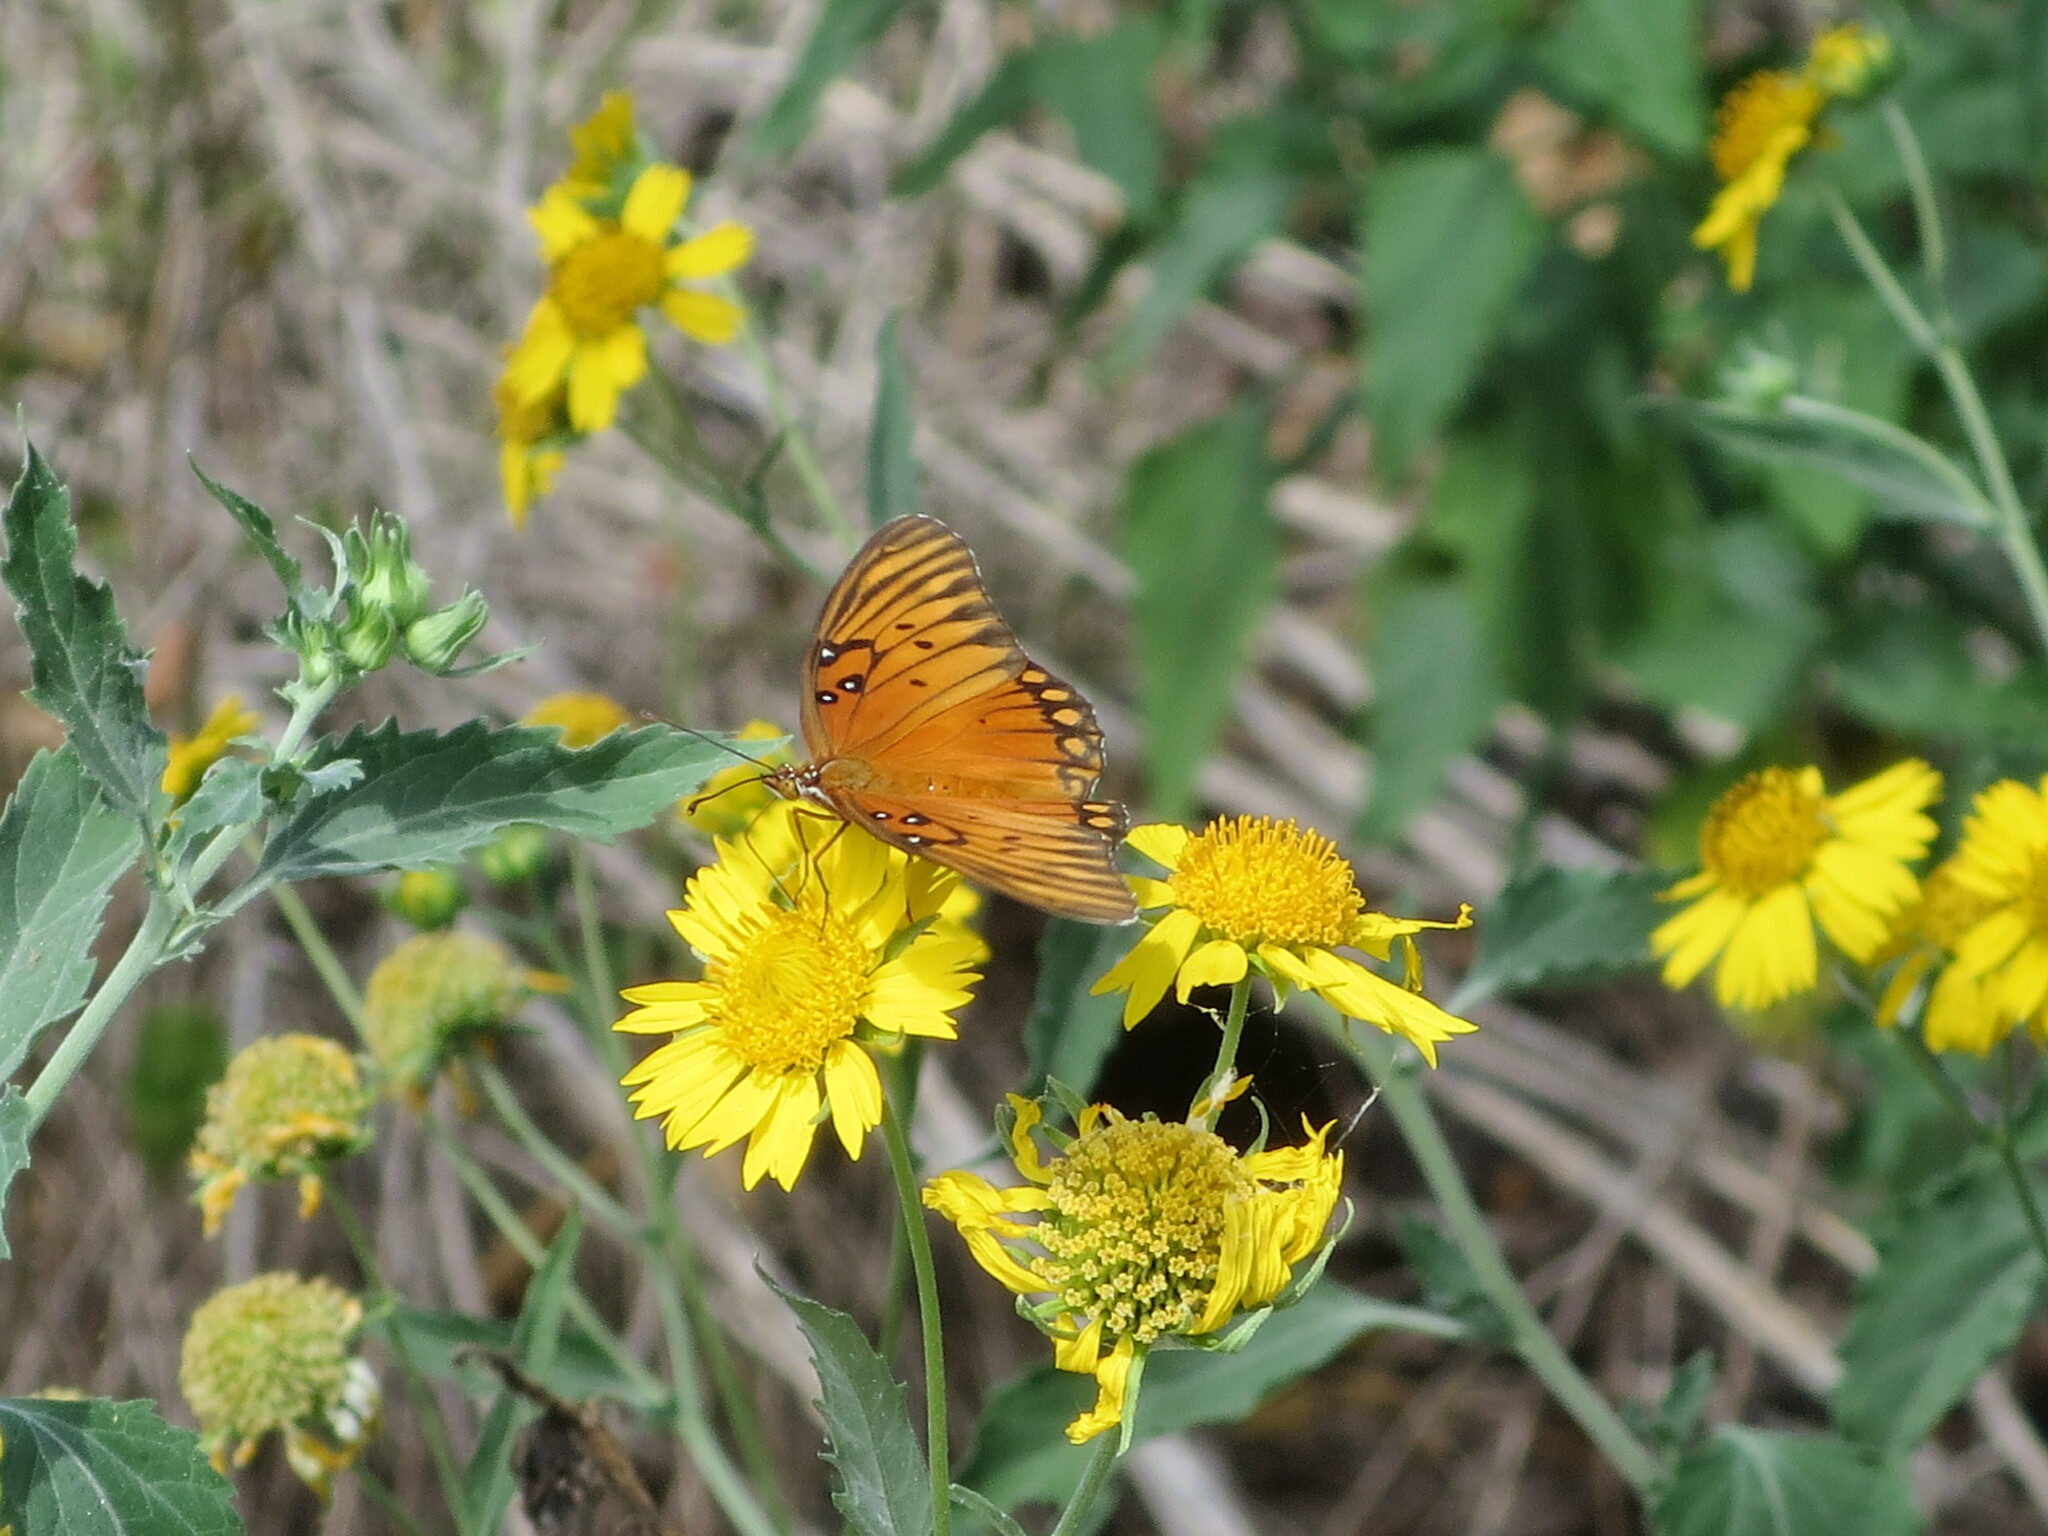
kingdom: Animalia
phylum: Arthropoda
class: Insecta
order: Lepidoptera
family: Nymphalidae
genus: Dione
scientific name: Dione vanillae
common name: Gulf fritillary
